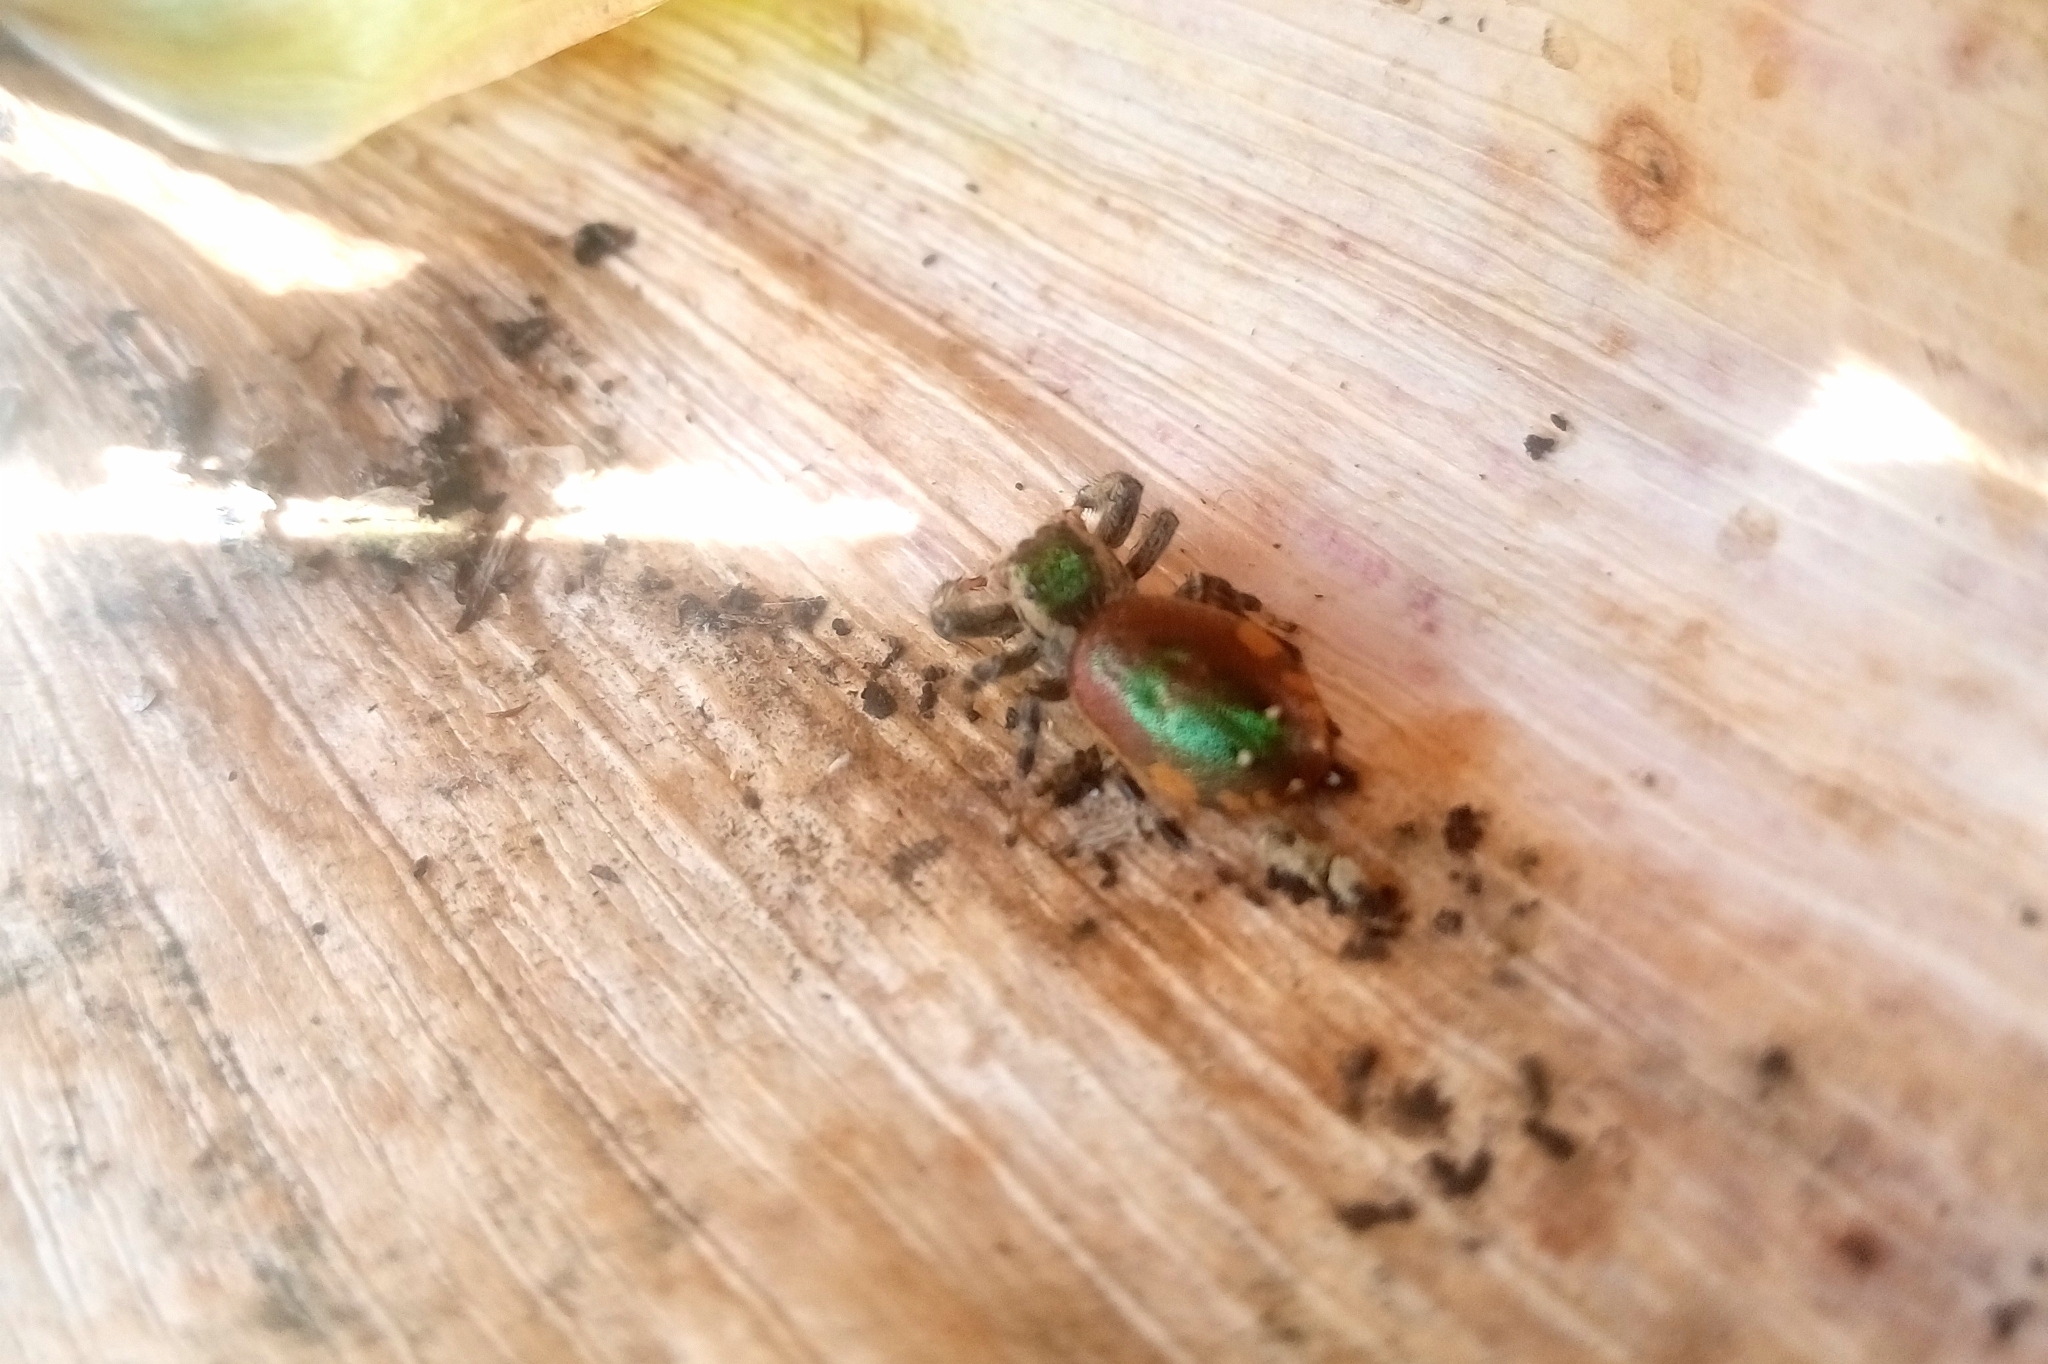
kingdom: Animalia
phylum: Arthropoda
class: Arachnida
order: Araneae
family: Salticidae
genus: Paraphidippus
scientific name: Paraphidippus aurantius
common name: Jumping spiders
